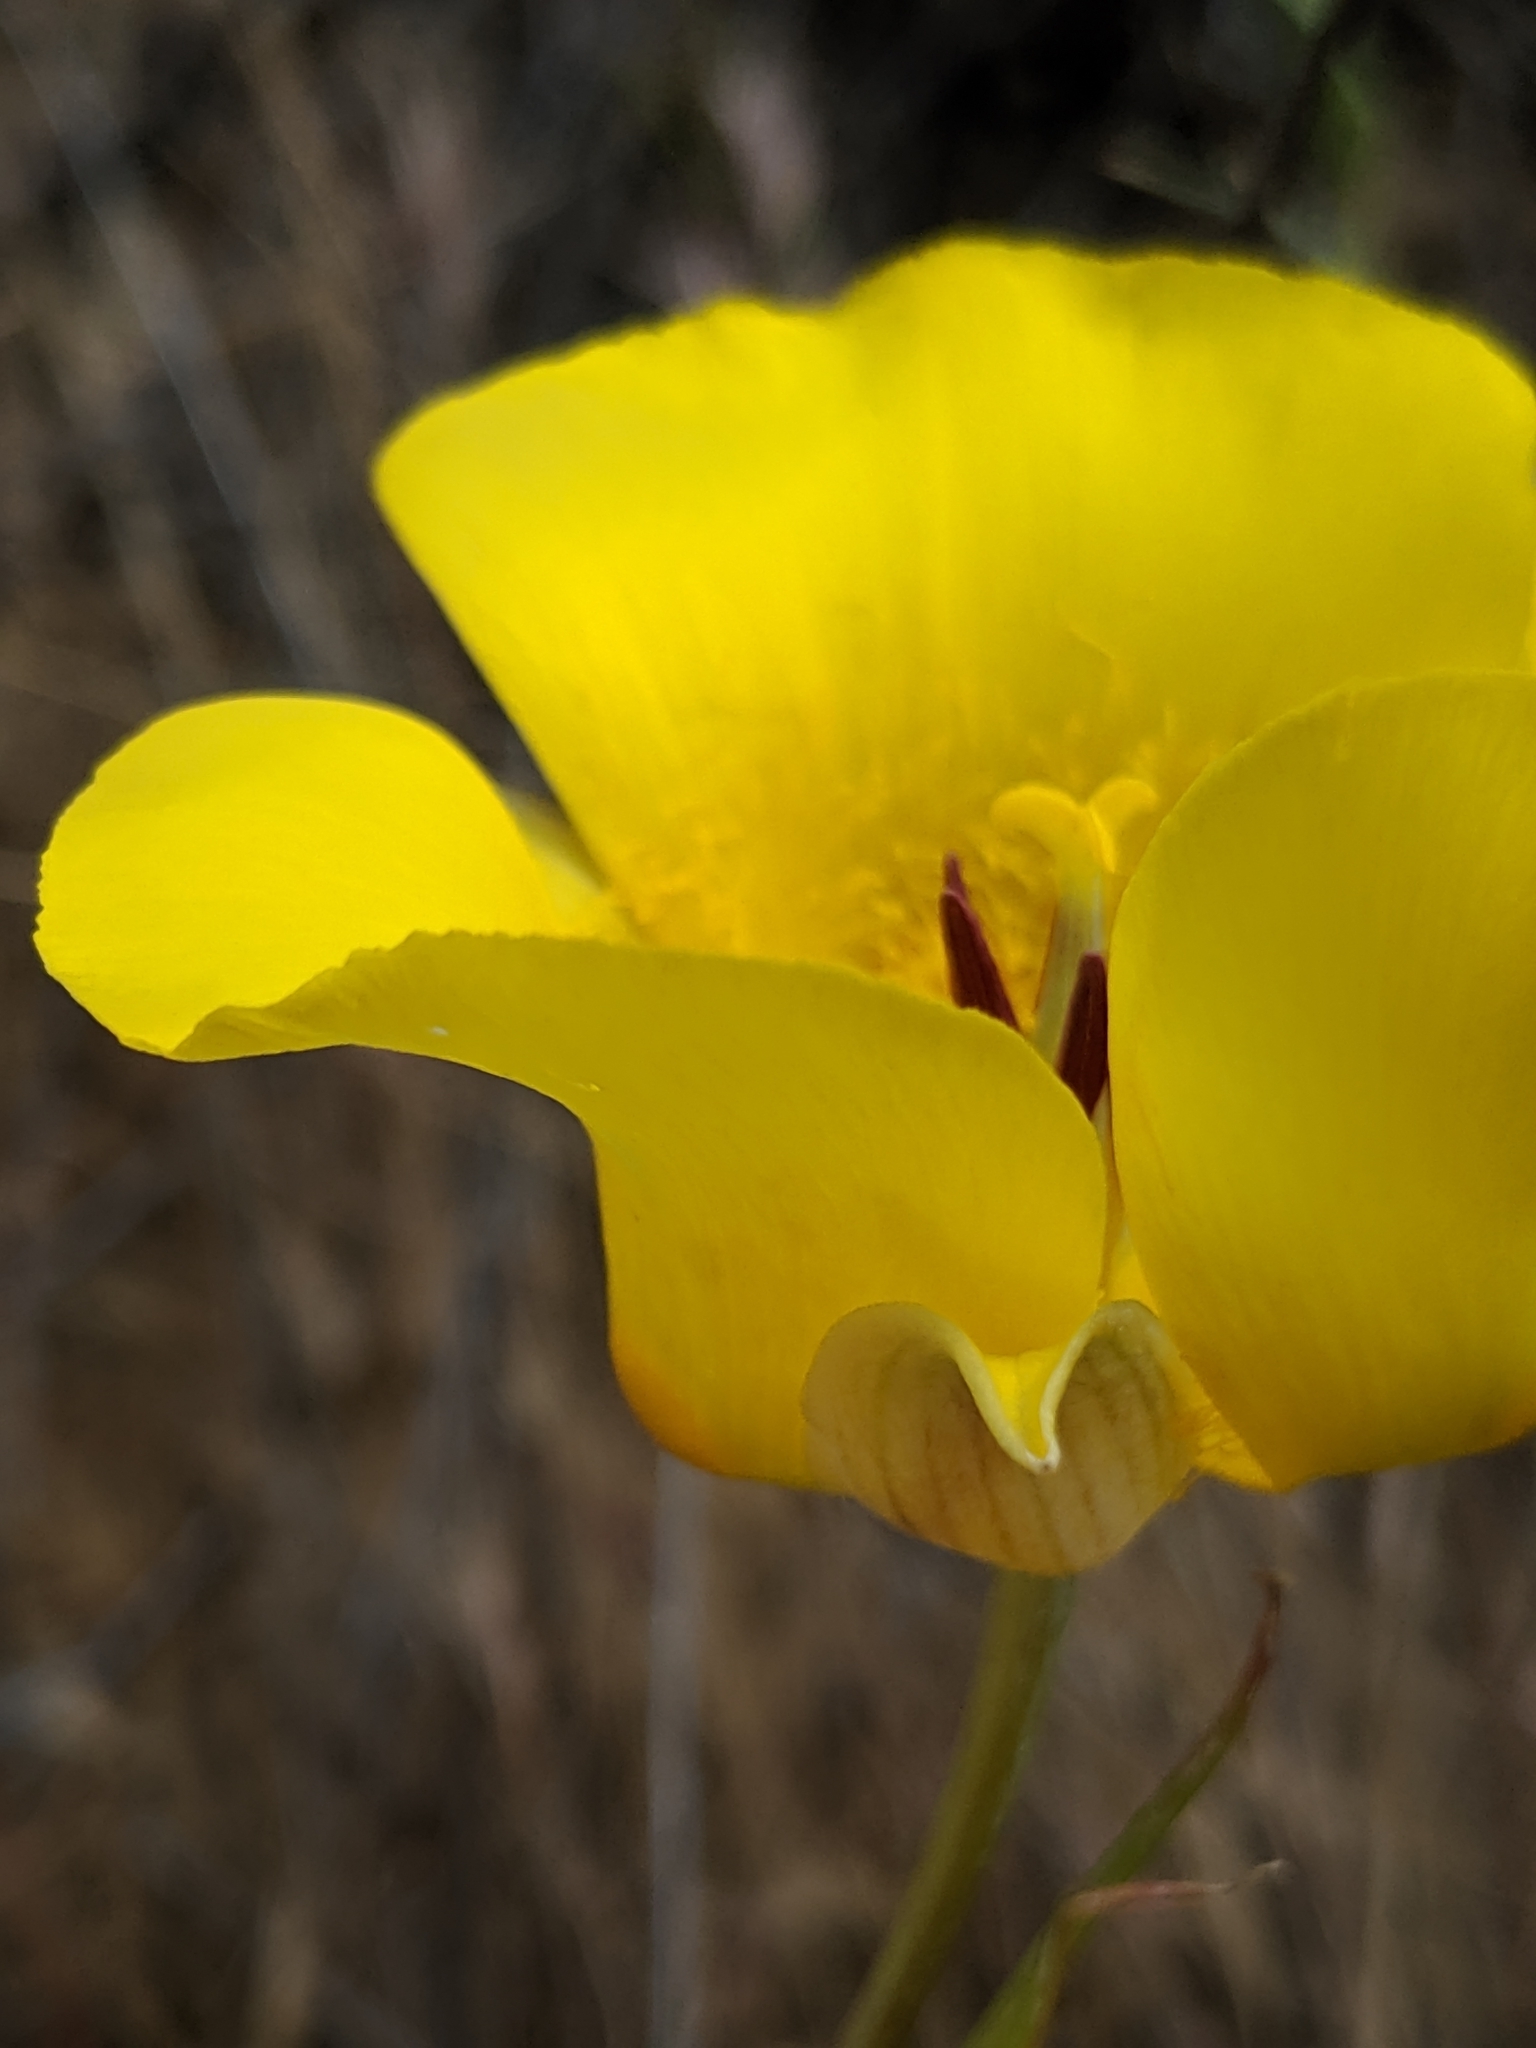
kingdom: Plantae
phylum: Tracheophyta
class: Liliopsida
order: Liliales
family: Liliaceae
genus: Calochortus
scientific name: Calochortus clavatus
